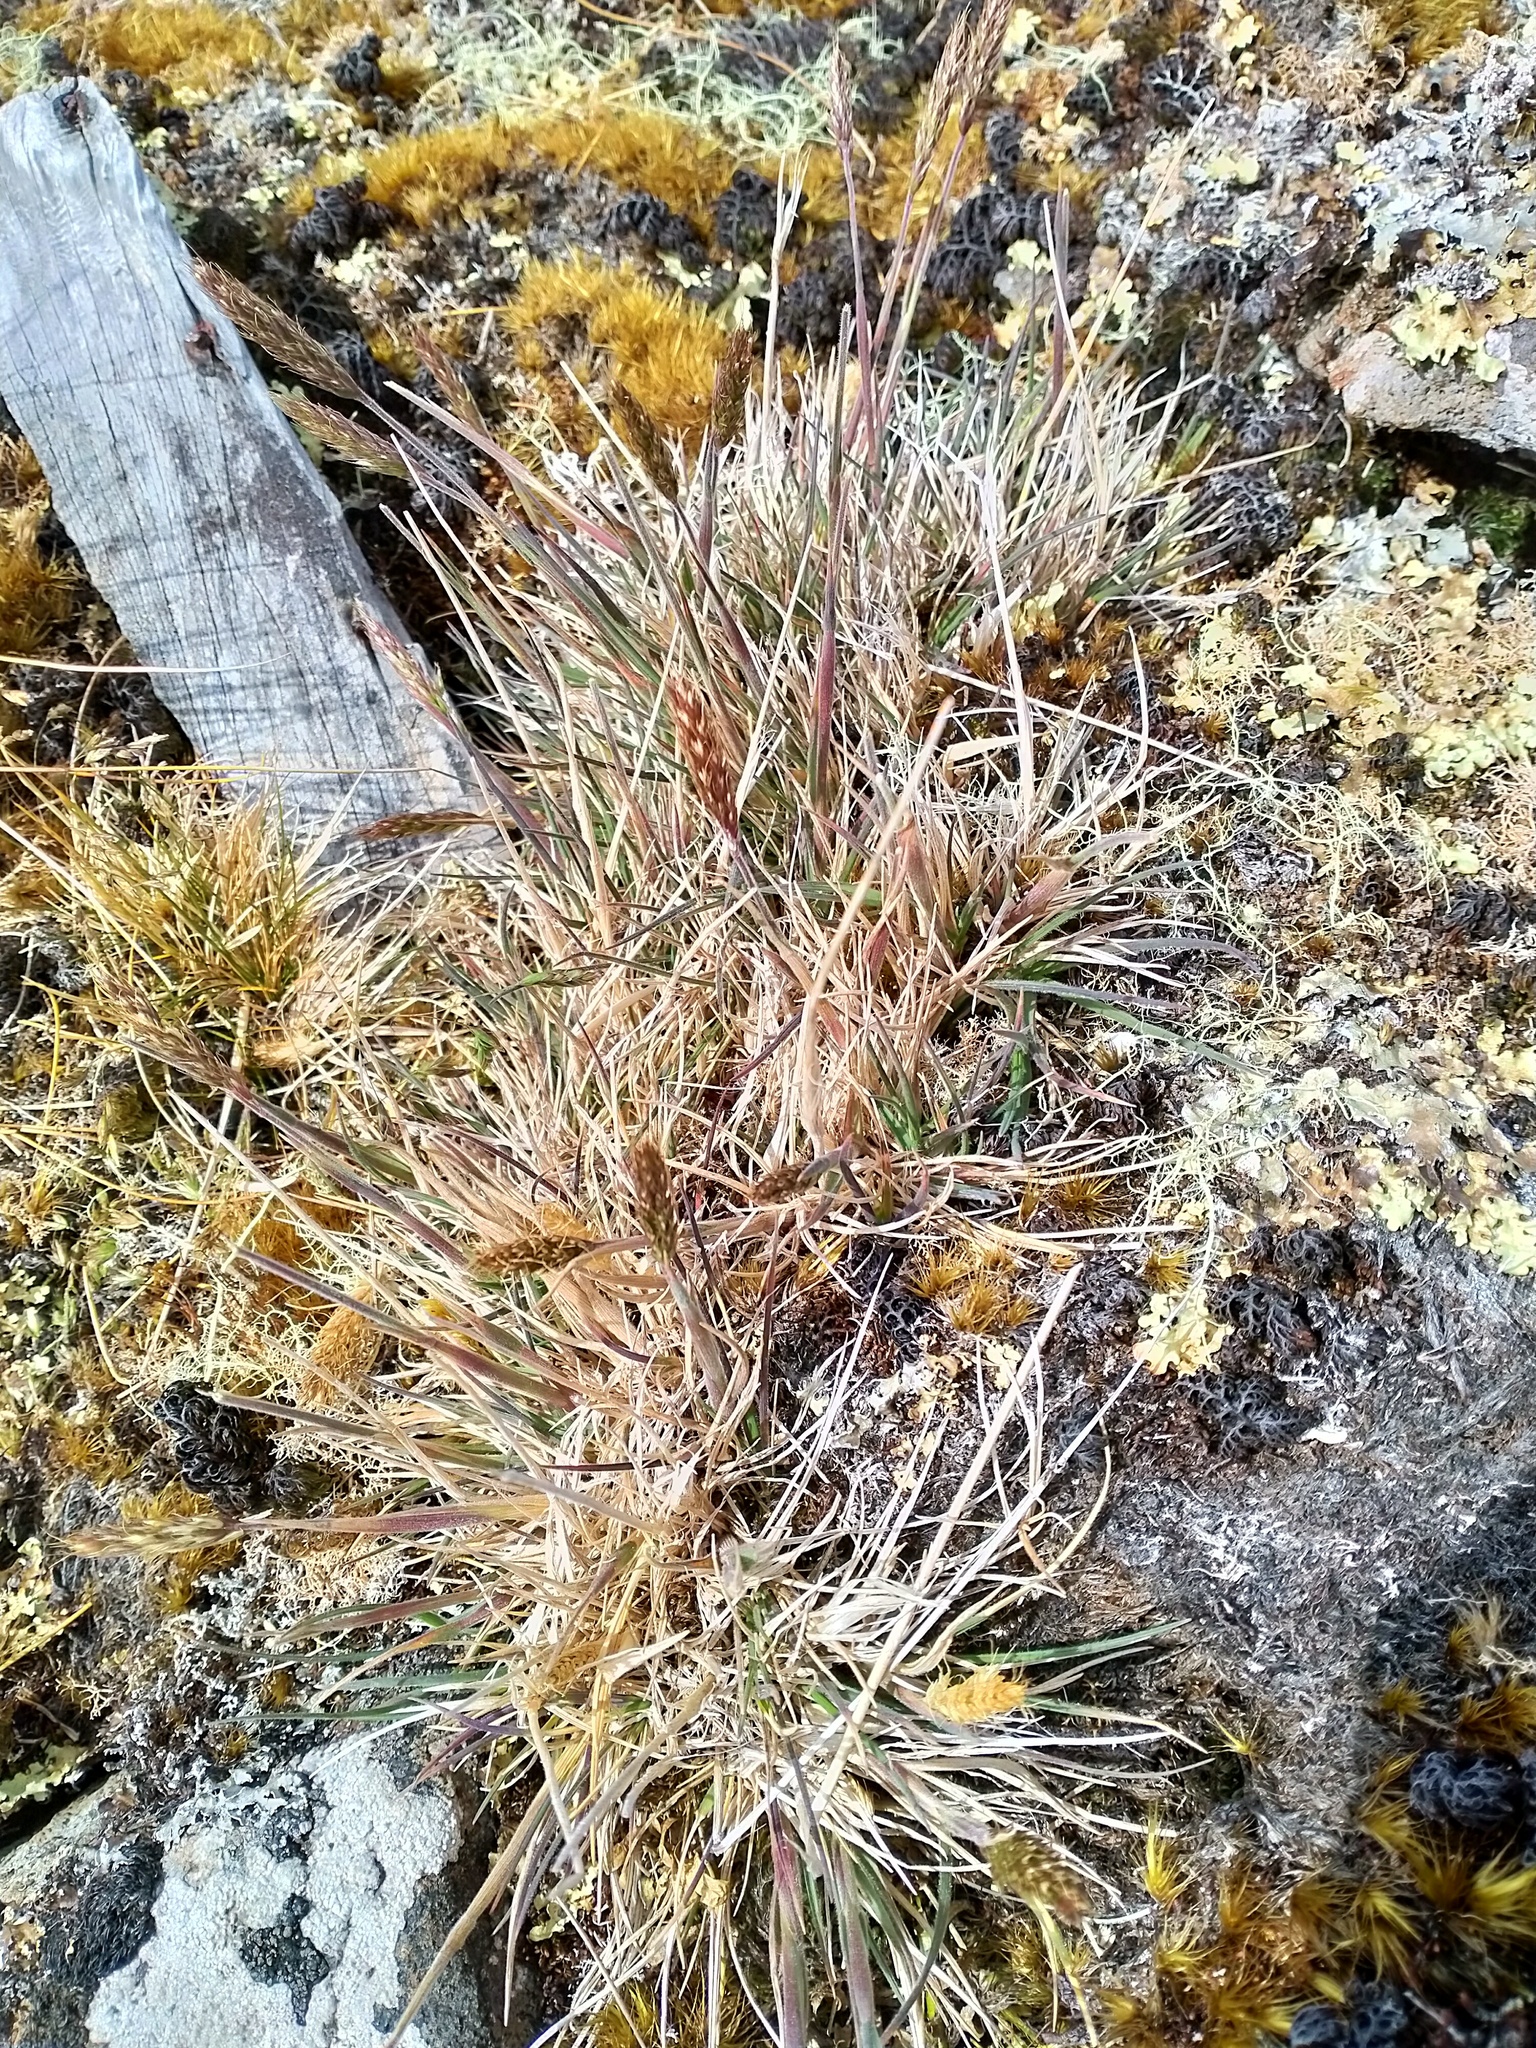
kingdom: Plantae
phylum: Tracheophyta
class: Liliopsida
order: Poales
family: Poaceae
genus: Koeleria
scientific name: Koeleria spicata
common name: Mountain trisetum
